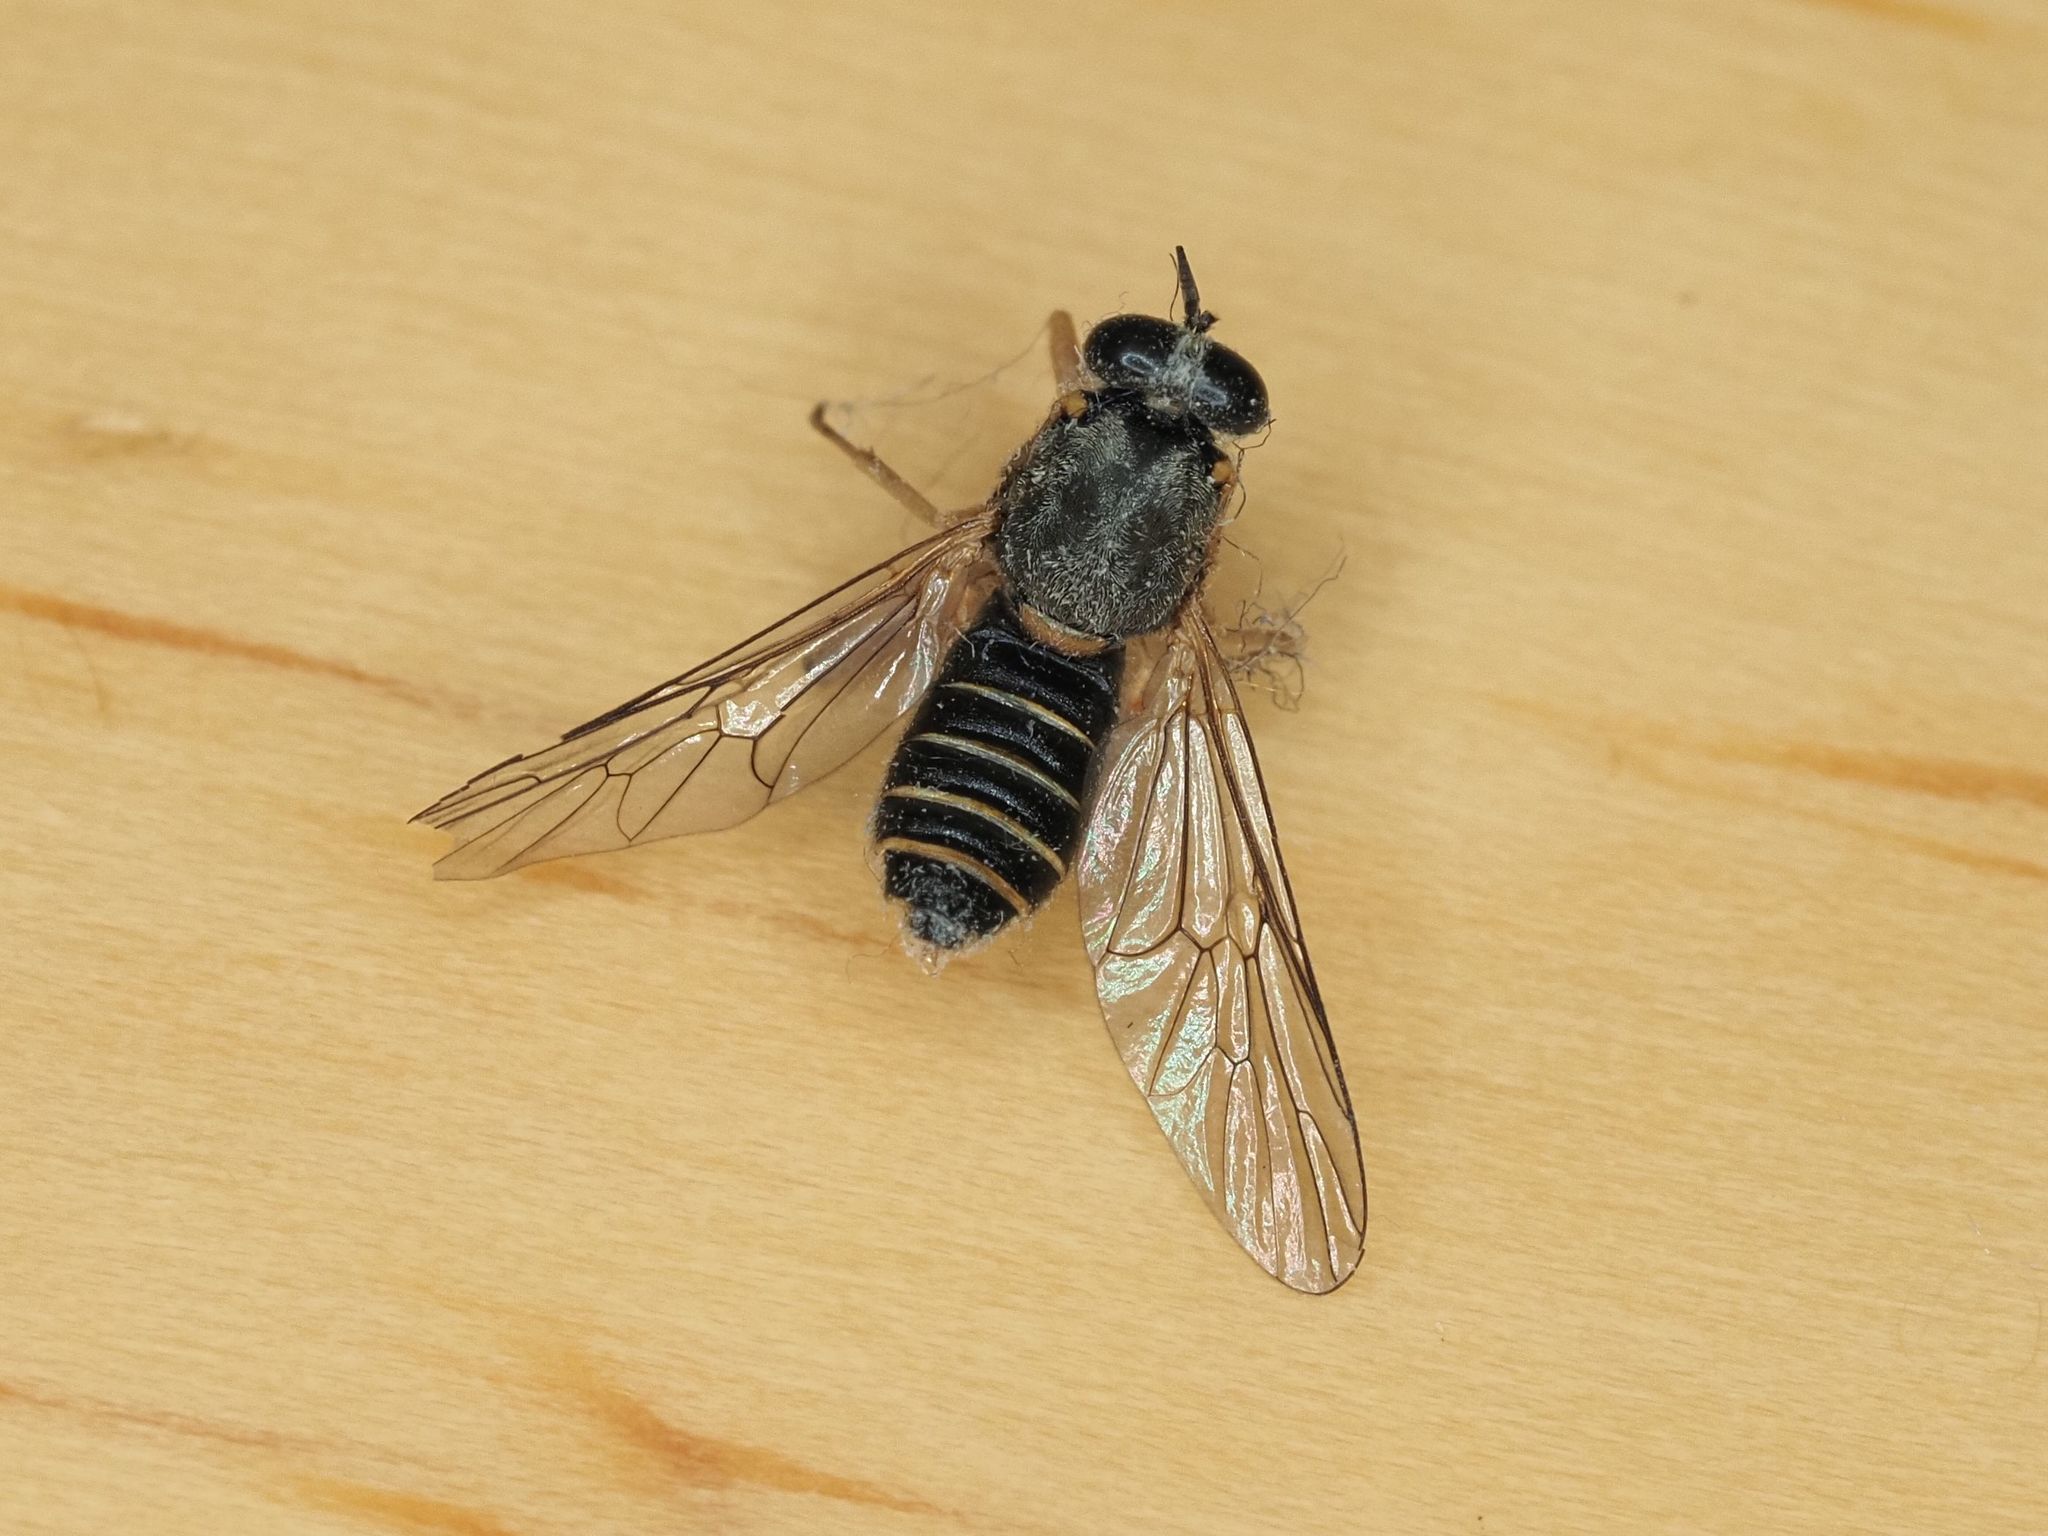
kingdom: Animalia
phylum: Arthropoda
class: Insecta
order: Diptera
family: Xylomyidae
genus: Solva
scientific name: Solva marginata
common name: Drab wood-soldierfly
